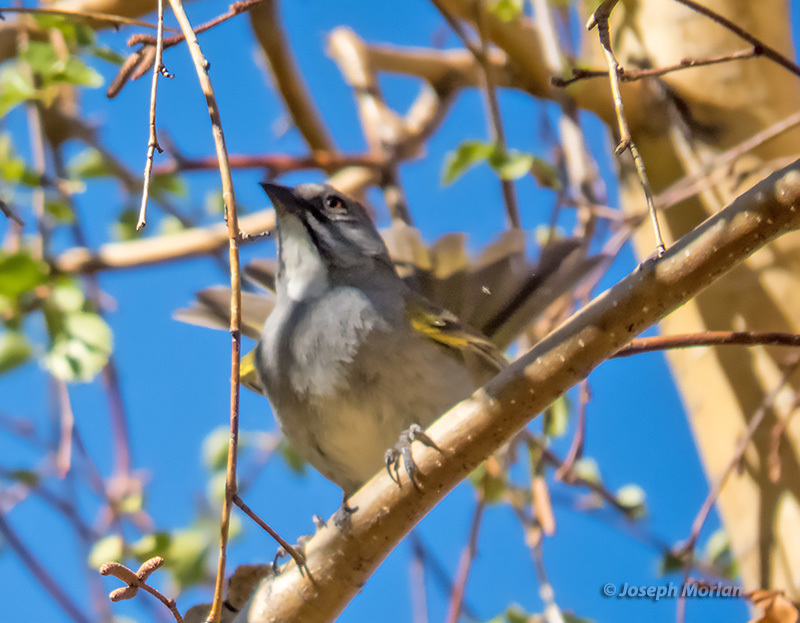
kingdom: Animalia
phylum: Chordata
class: Aves
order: Passeriformes
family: Passerellidae
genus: Pipilo
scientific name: Pipilo chlorurus
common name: Green-tailed towhee
